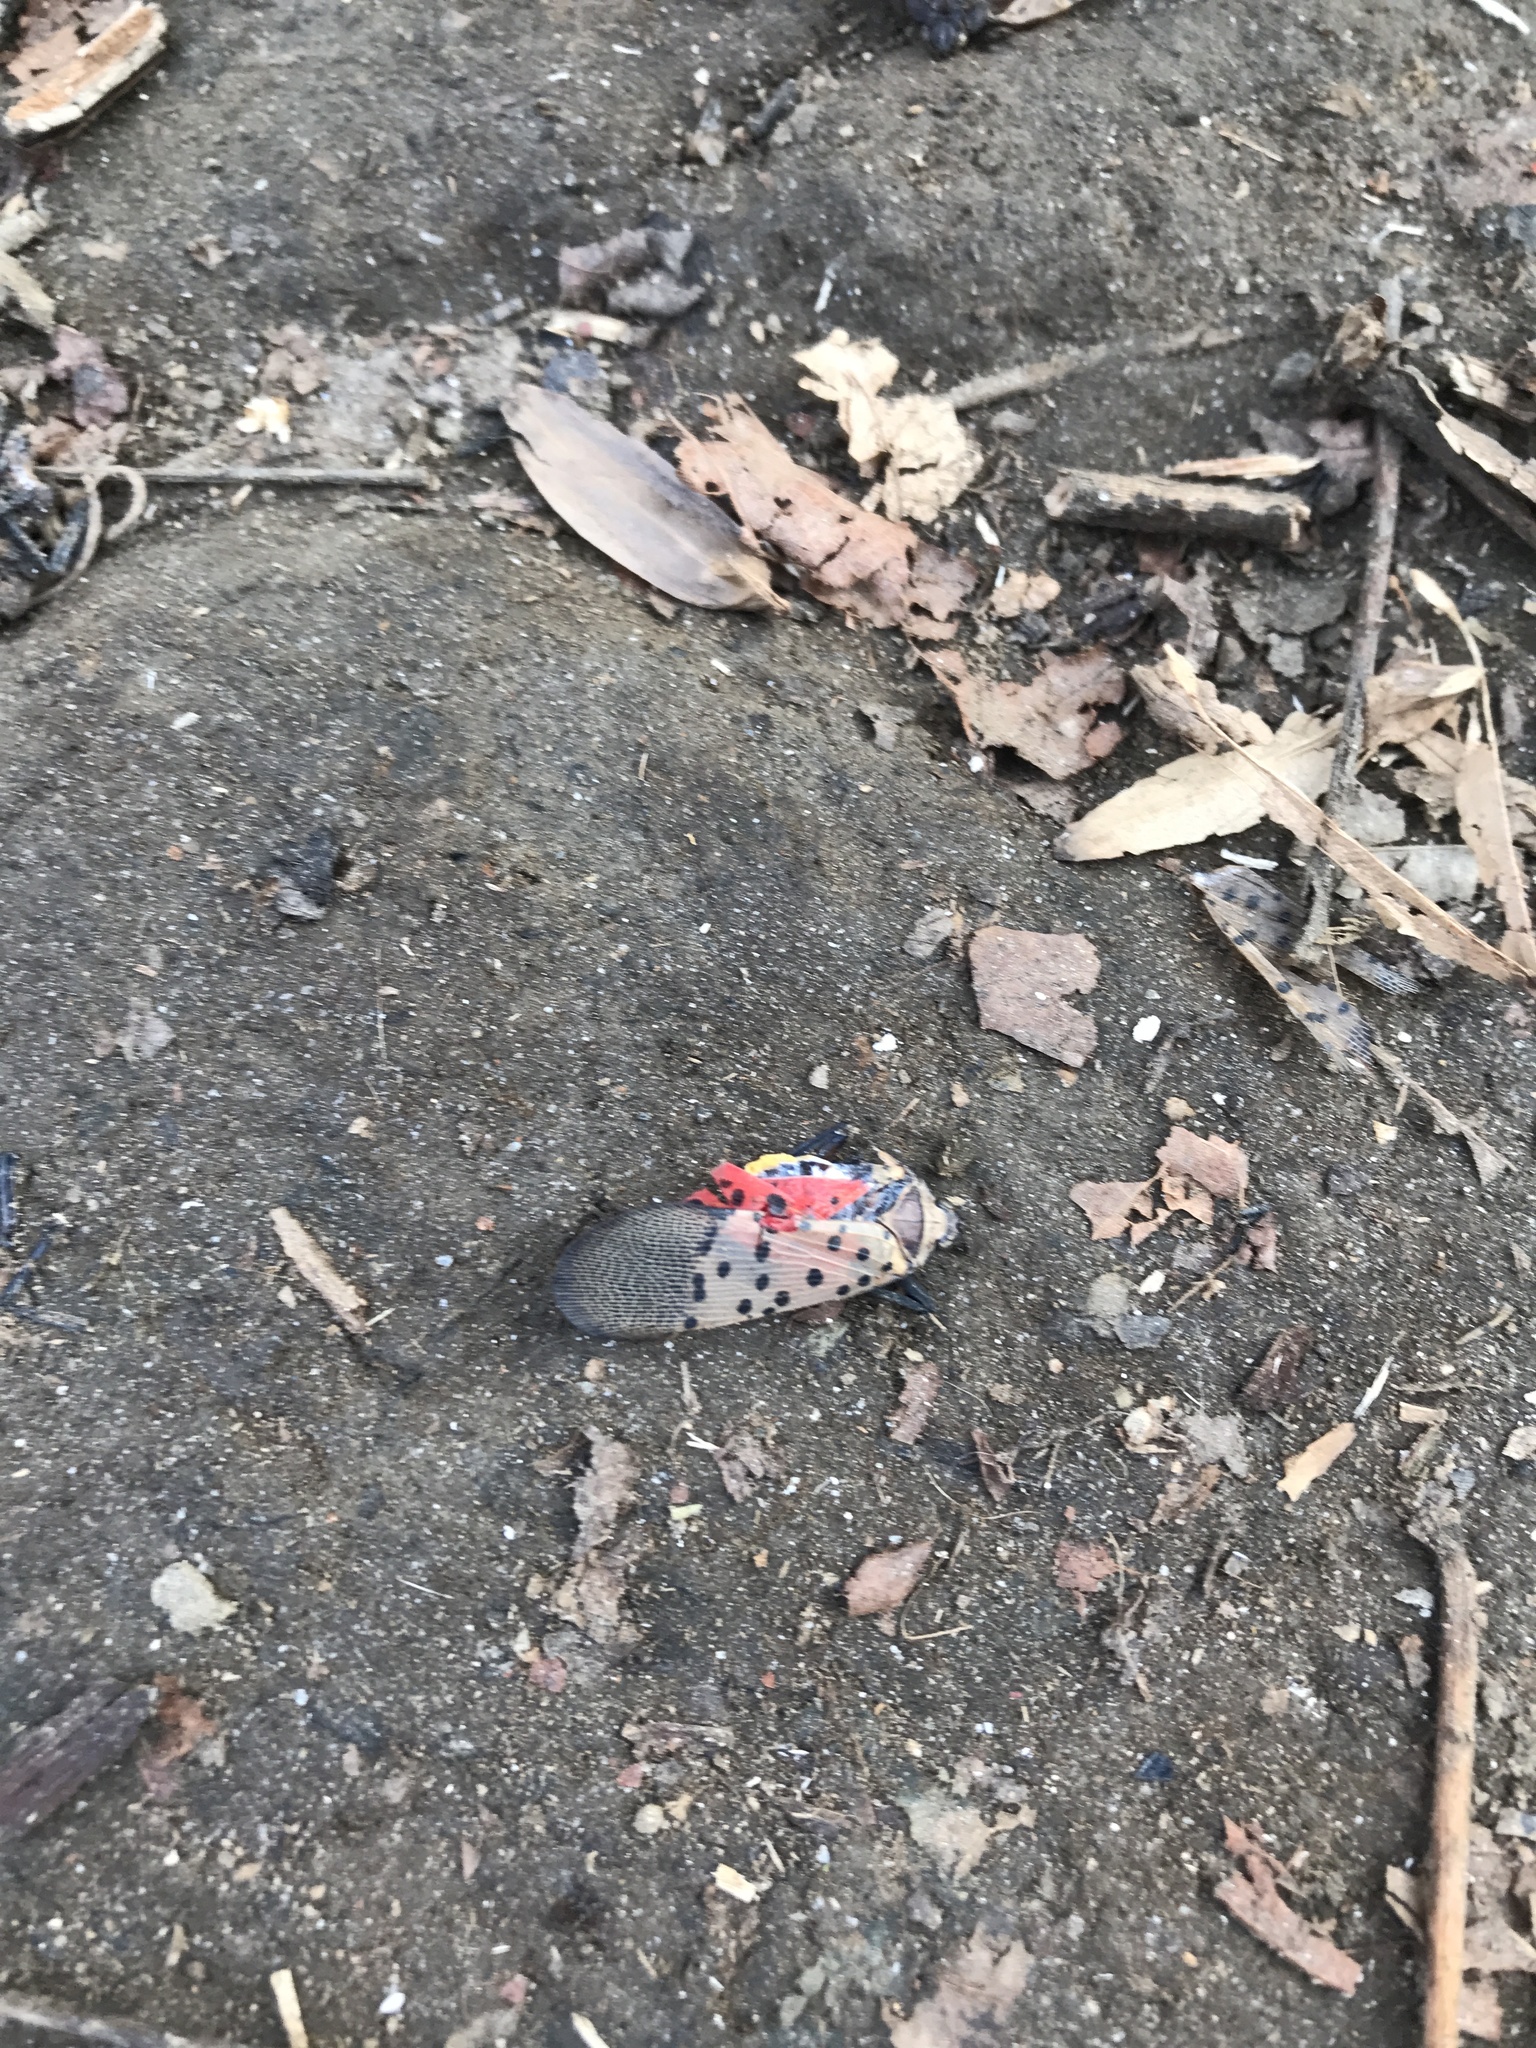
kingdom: Animalia
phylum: Arthropoda
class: Insecta
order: Hemiptera
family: Fulgoridae
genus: Lycorma
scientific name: Lycorma delicatula
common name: Spotted lanternfly
